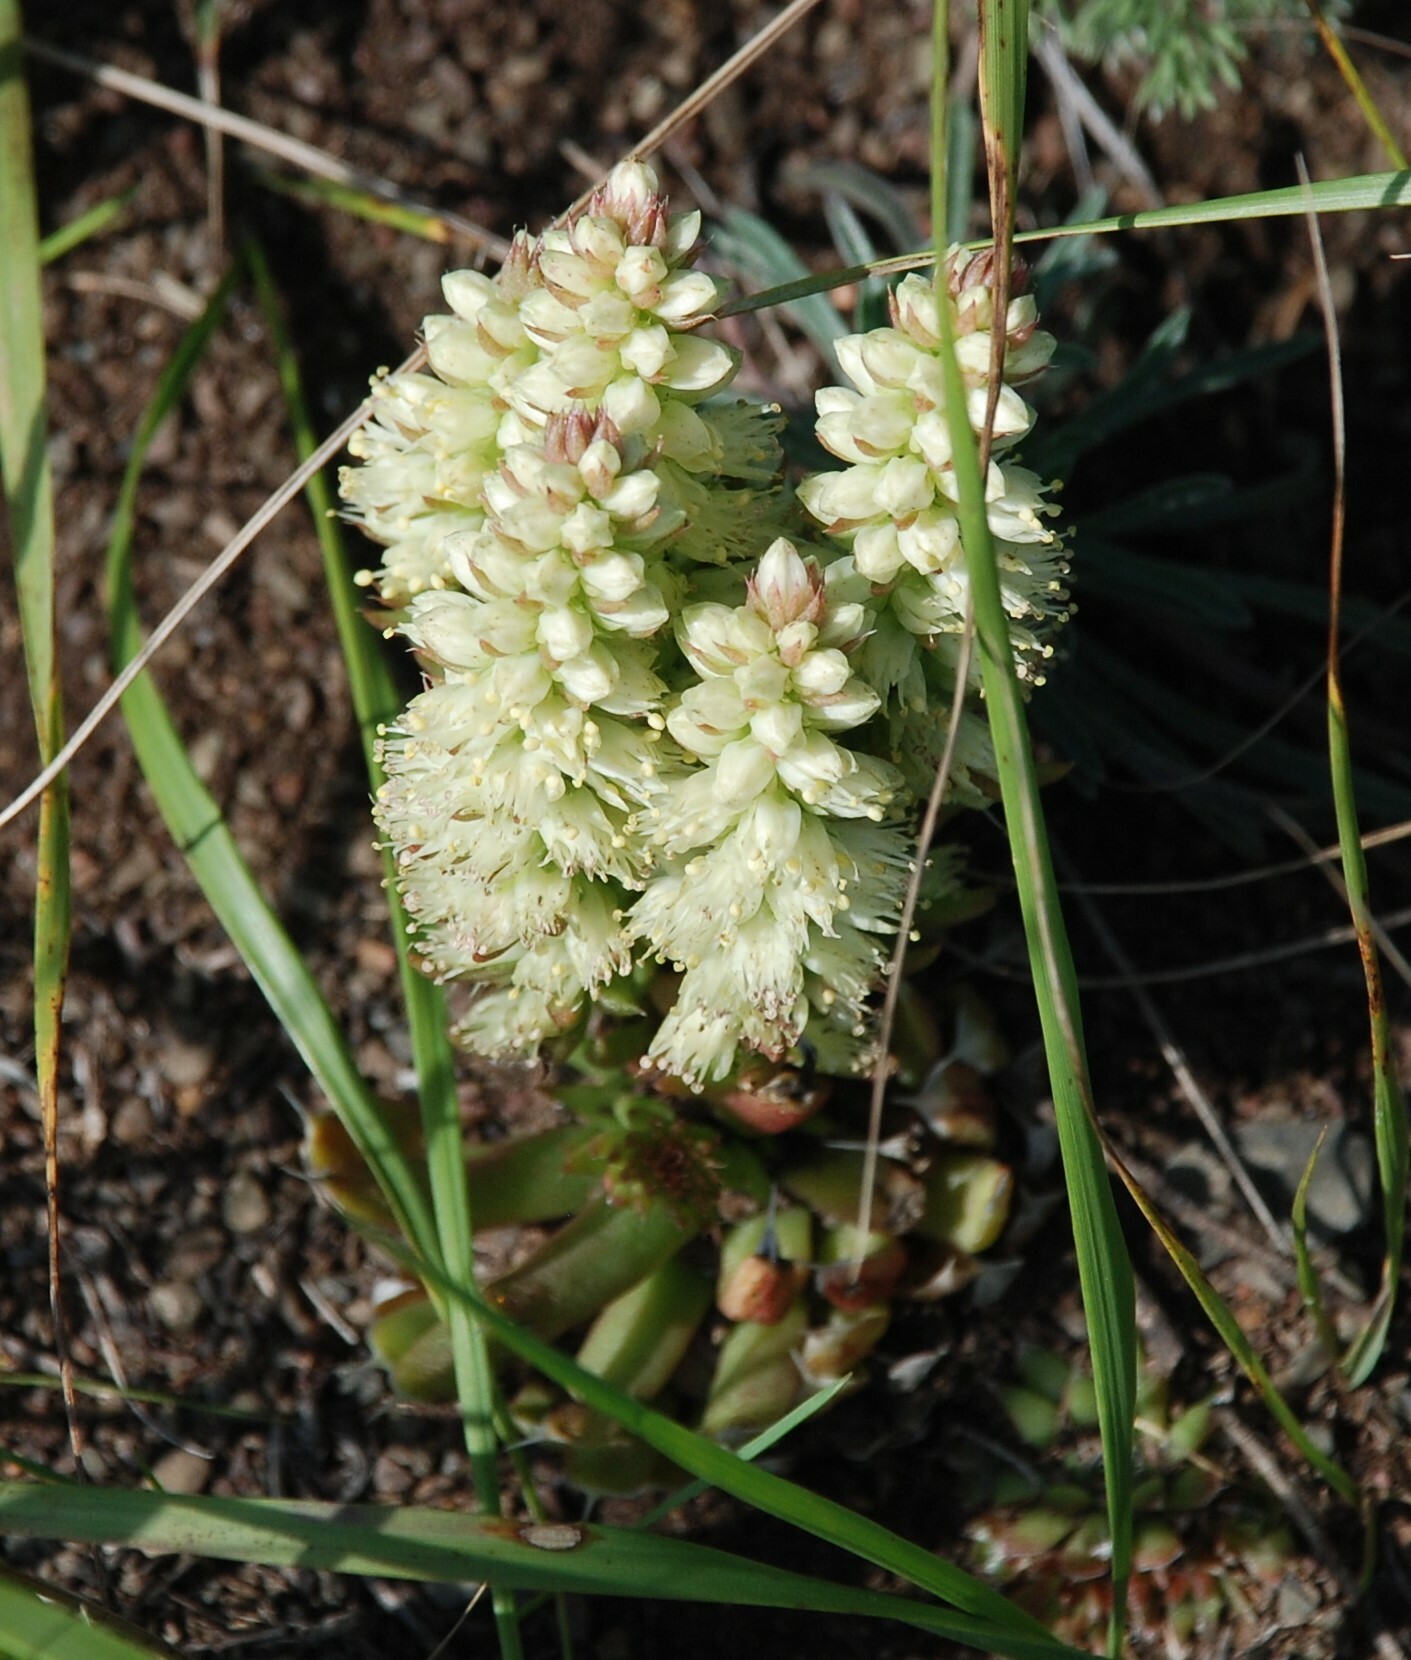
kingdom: Plantae
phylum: Tracheophyta
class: Magnoliopsida
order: Saxifragales
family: Crassulaceae
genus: Orostachys
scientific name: Orostachys spinosa
